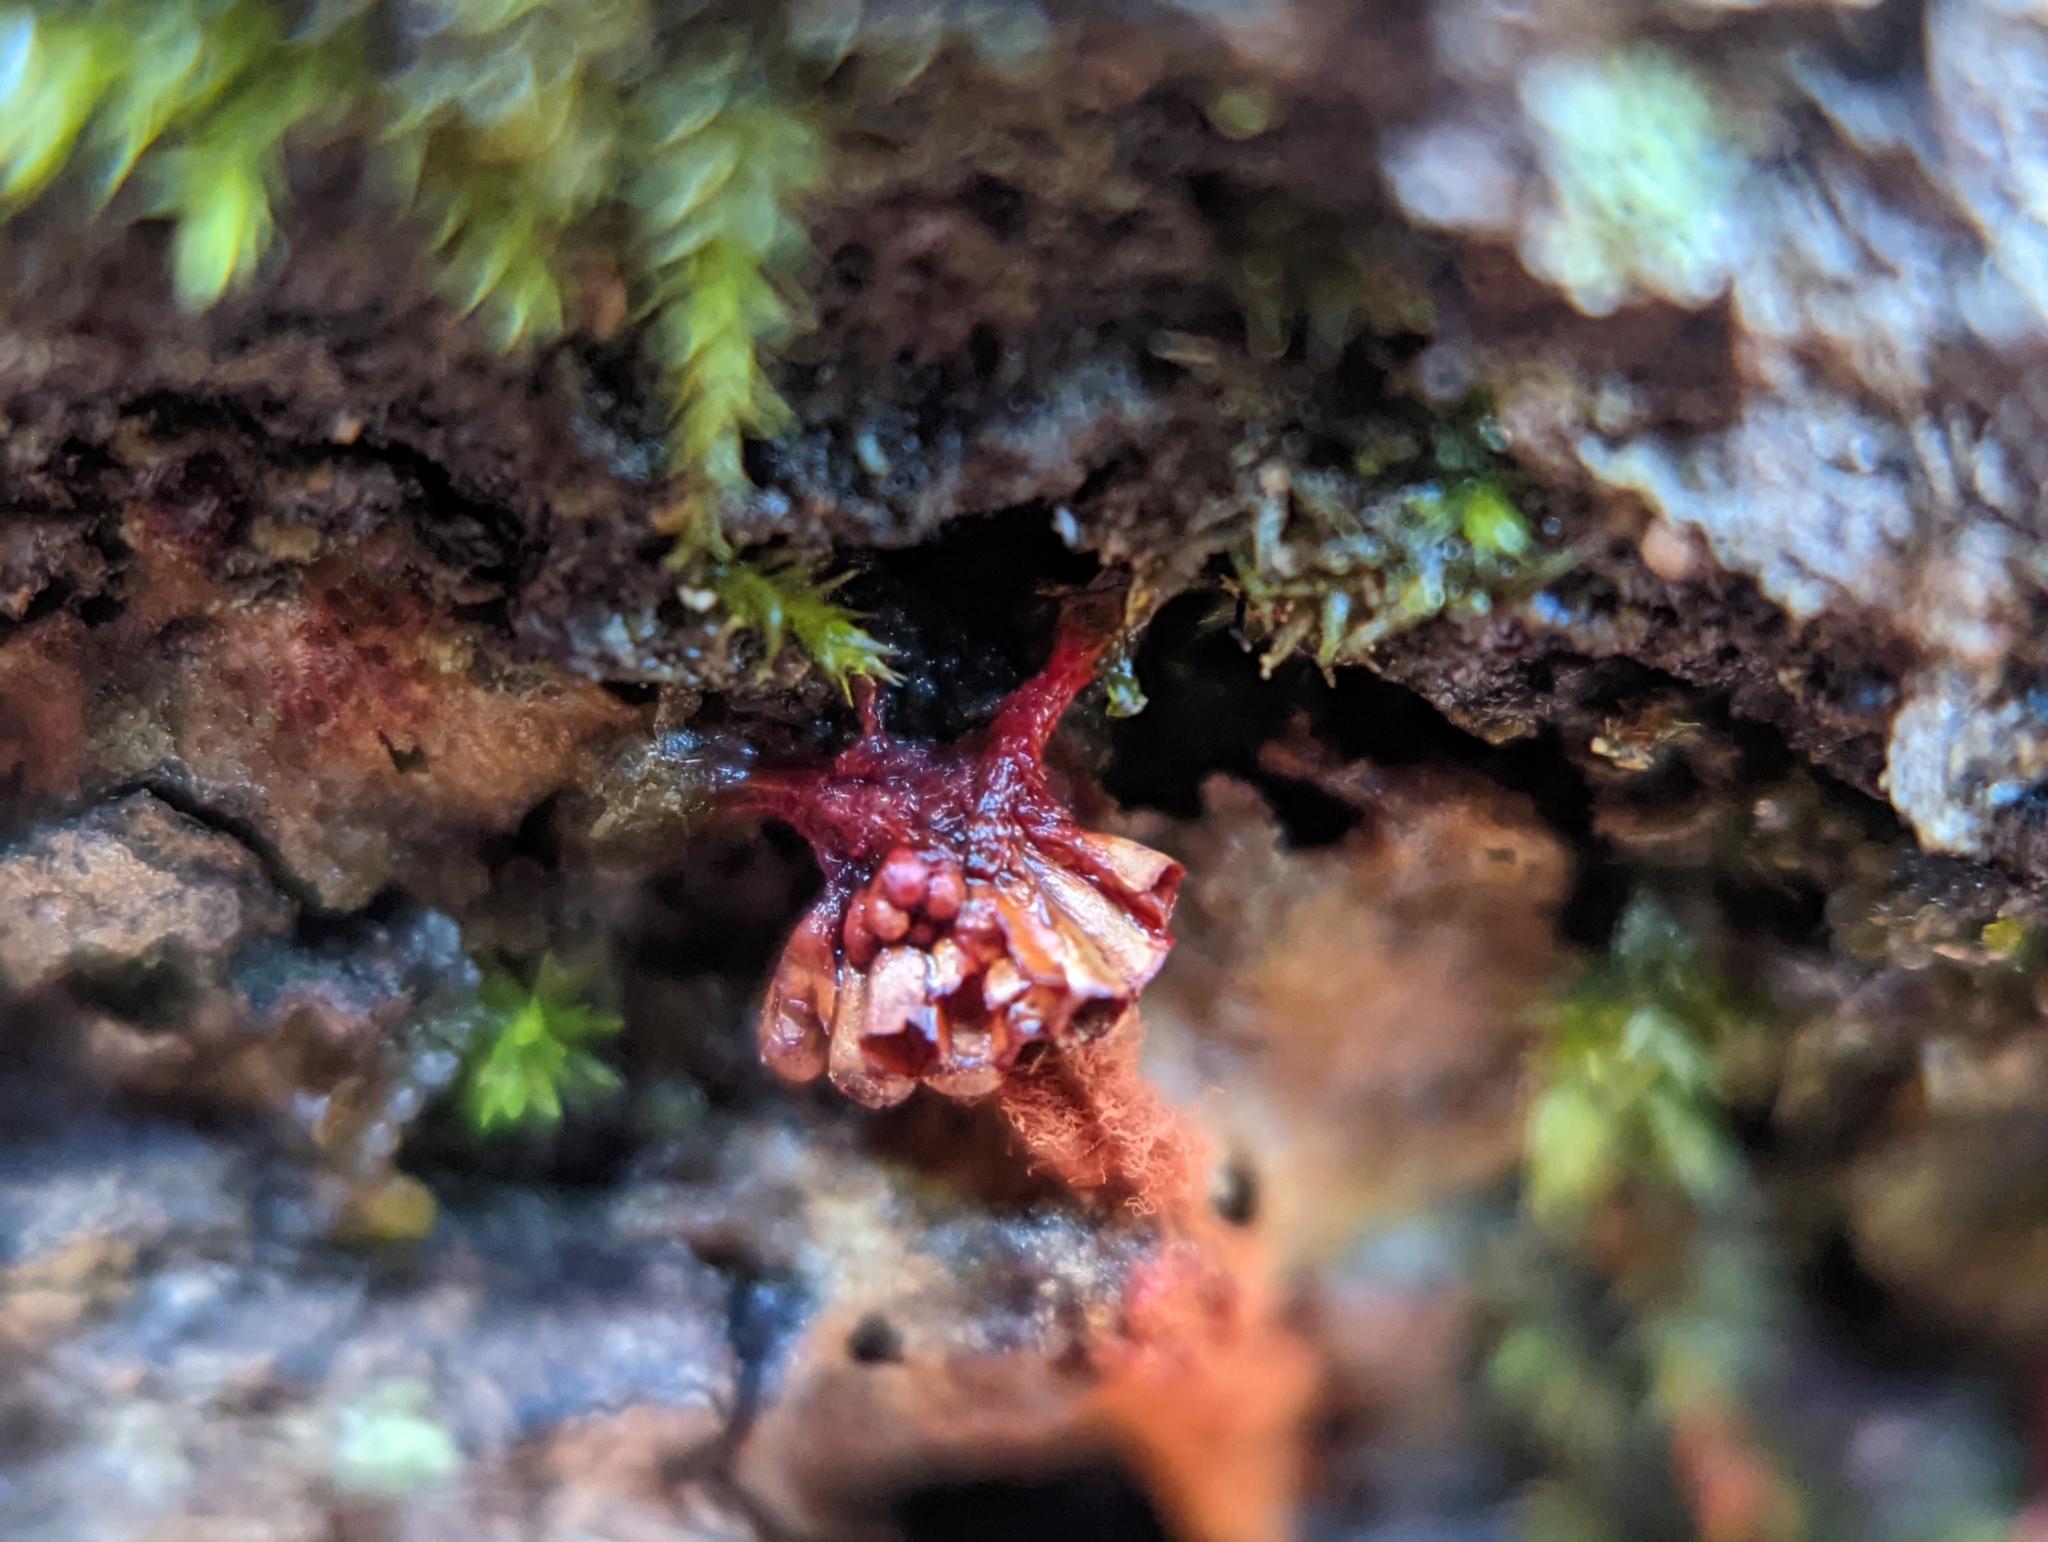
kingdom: Protozoa
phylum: Mycetozoa
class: Myxomycetes
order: Trichiales
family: Trichiaceae
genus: Metatrichia
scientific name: Metatrichia vesparia
